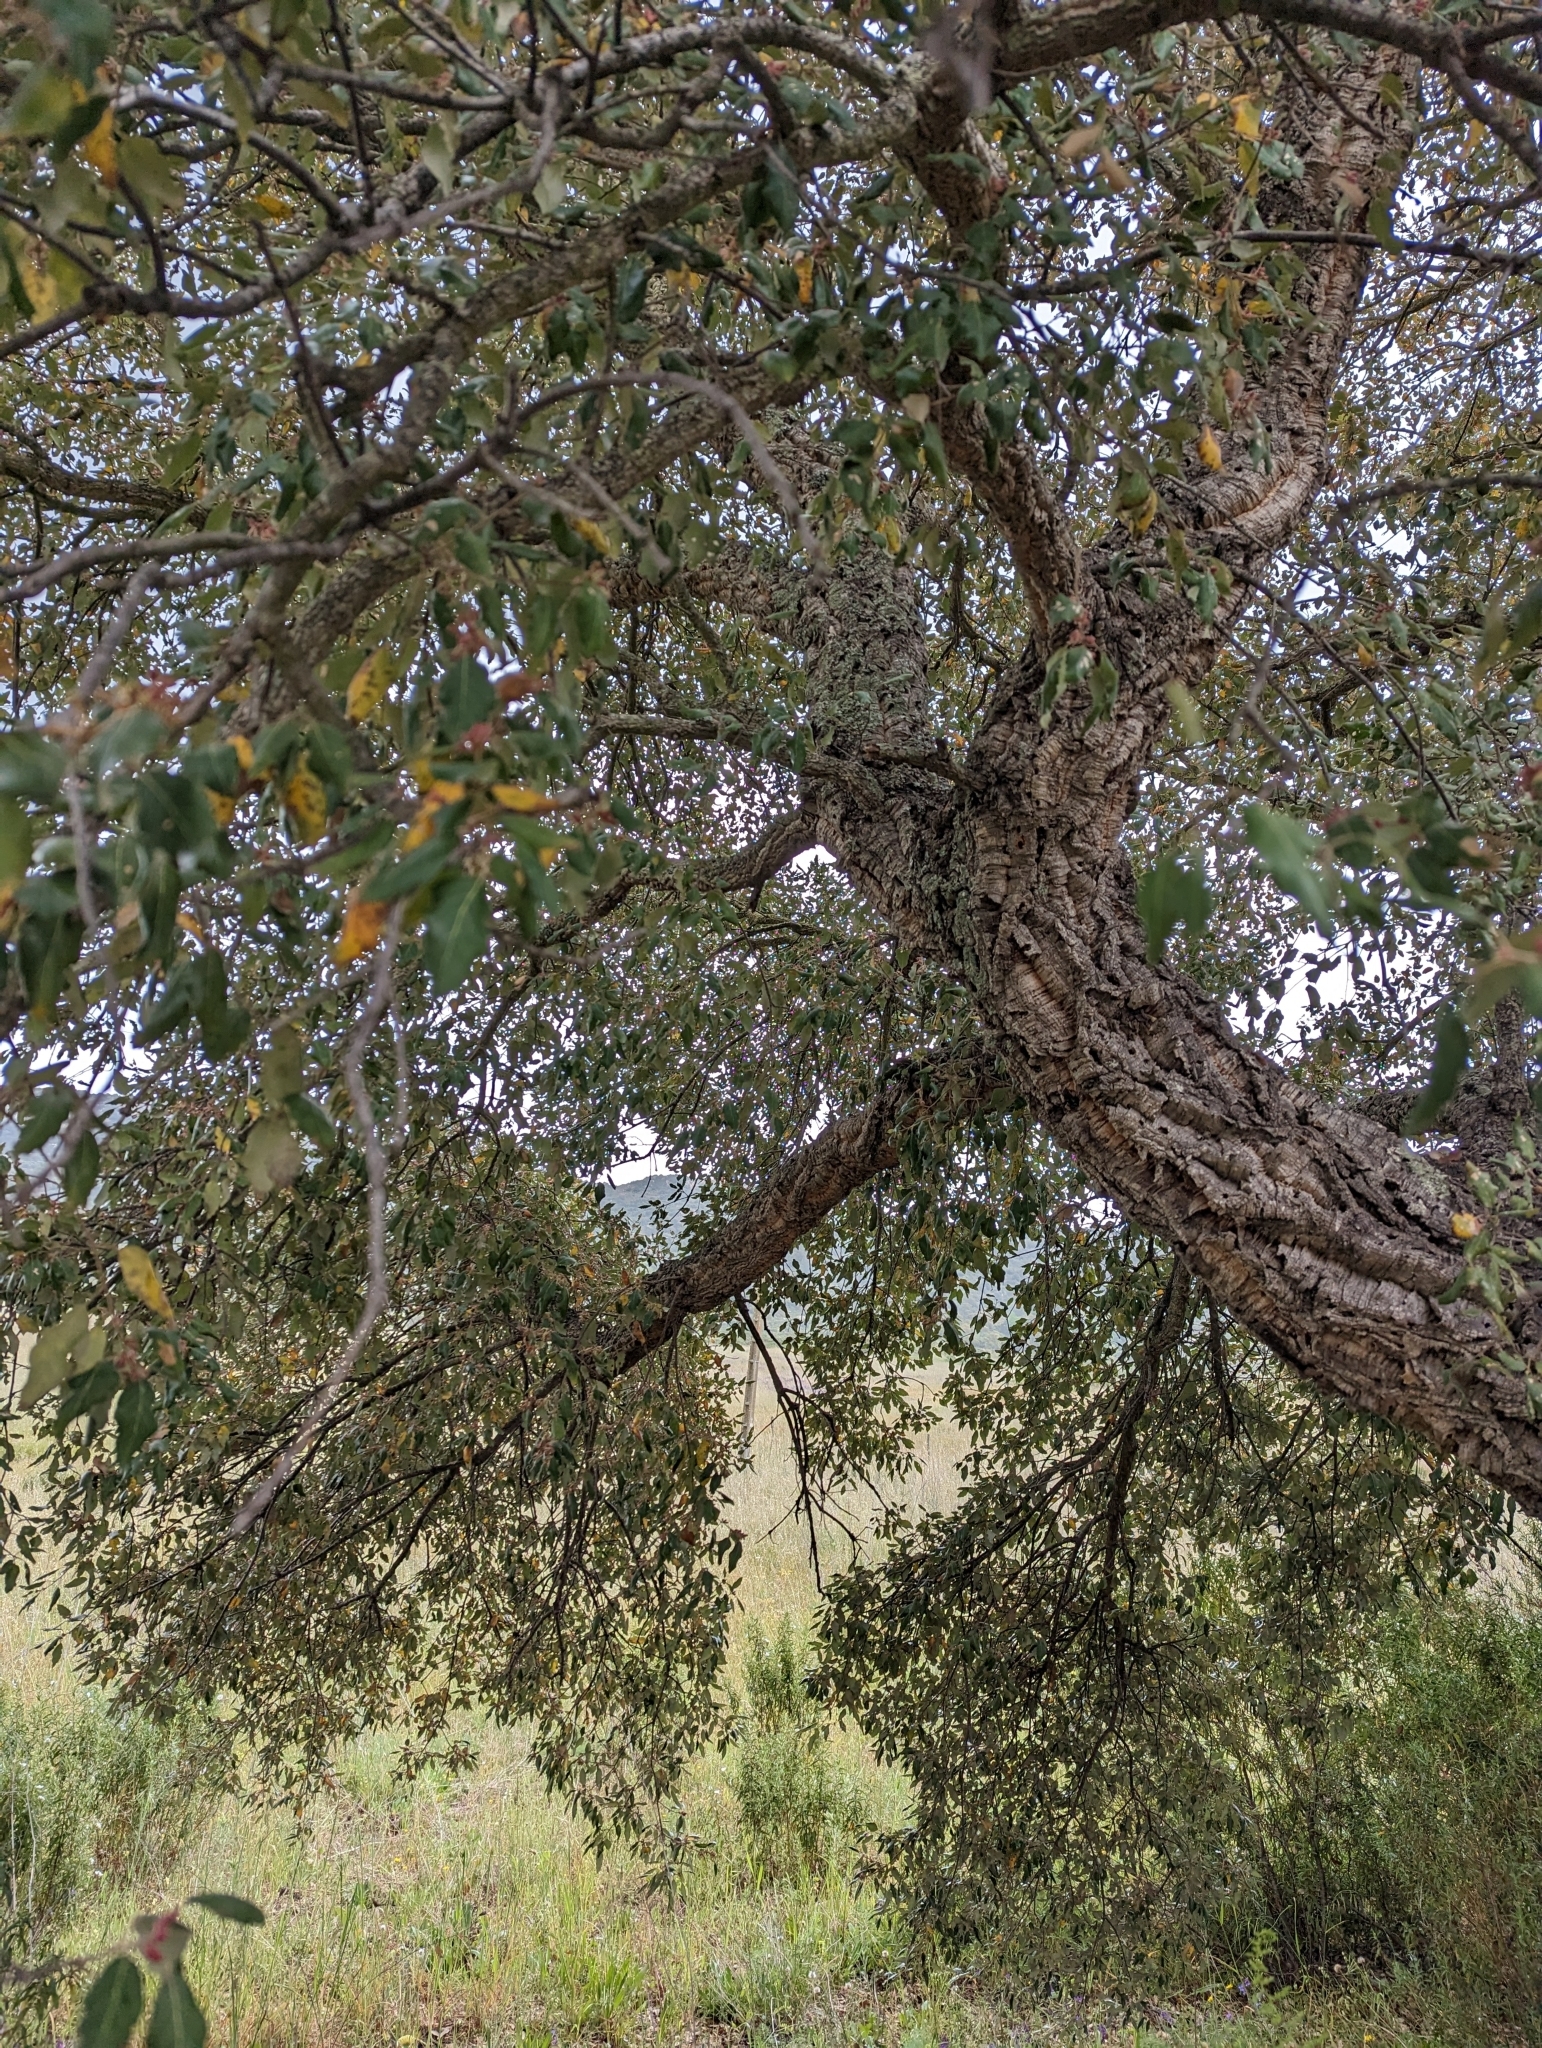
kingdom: Plantae
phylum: Tracheophyta
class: Magnoliopsida
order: Fagales
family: Fagaceae
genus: Quercus
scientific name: Quercus suber
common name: Cork oak
